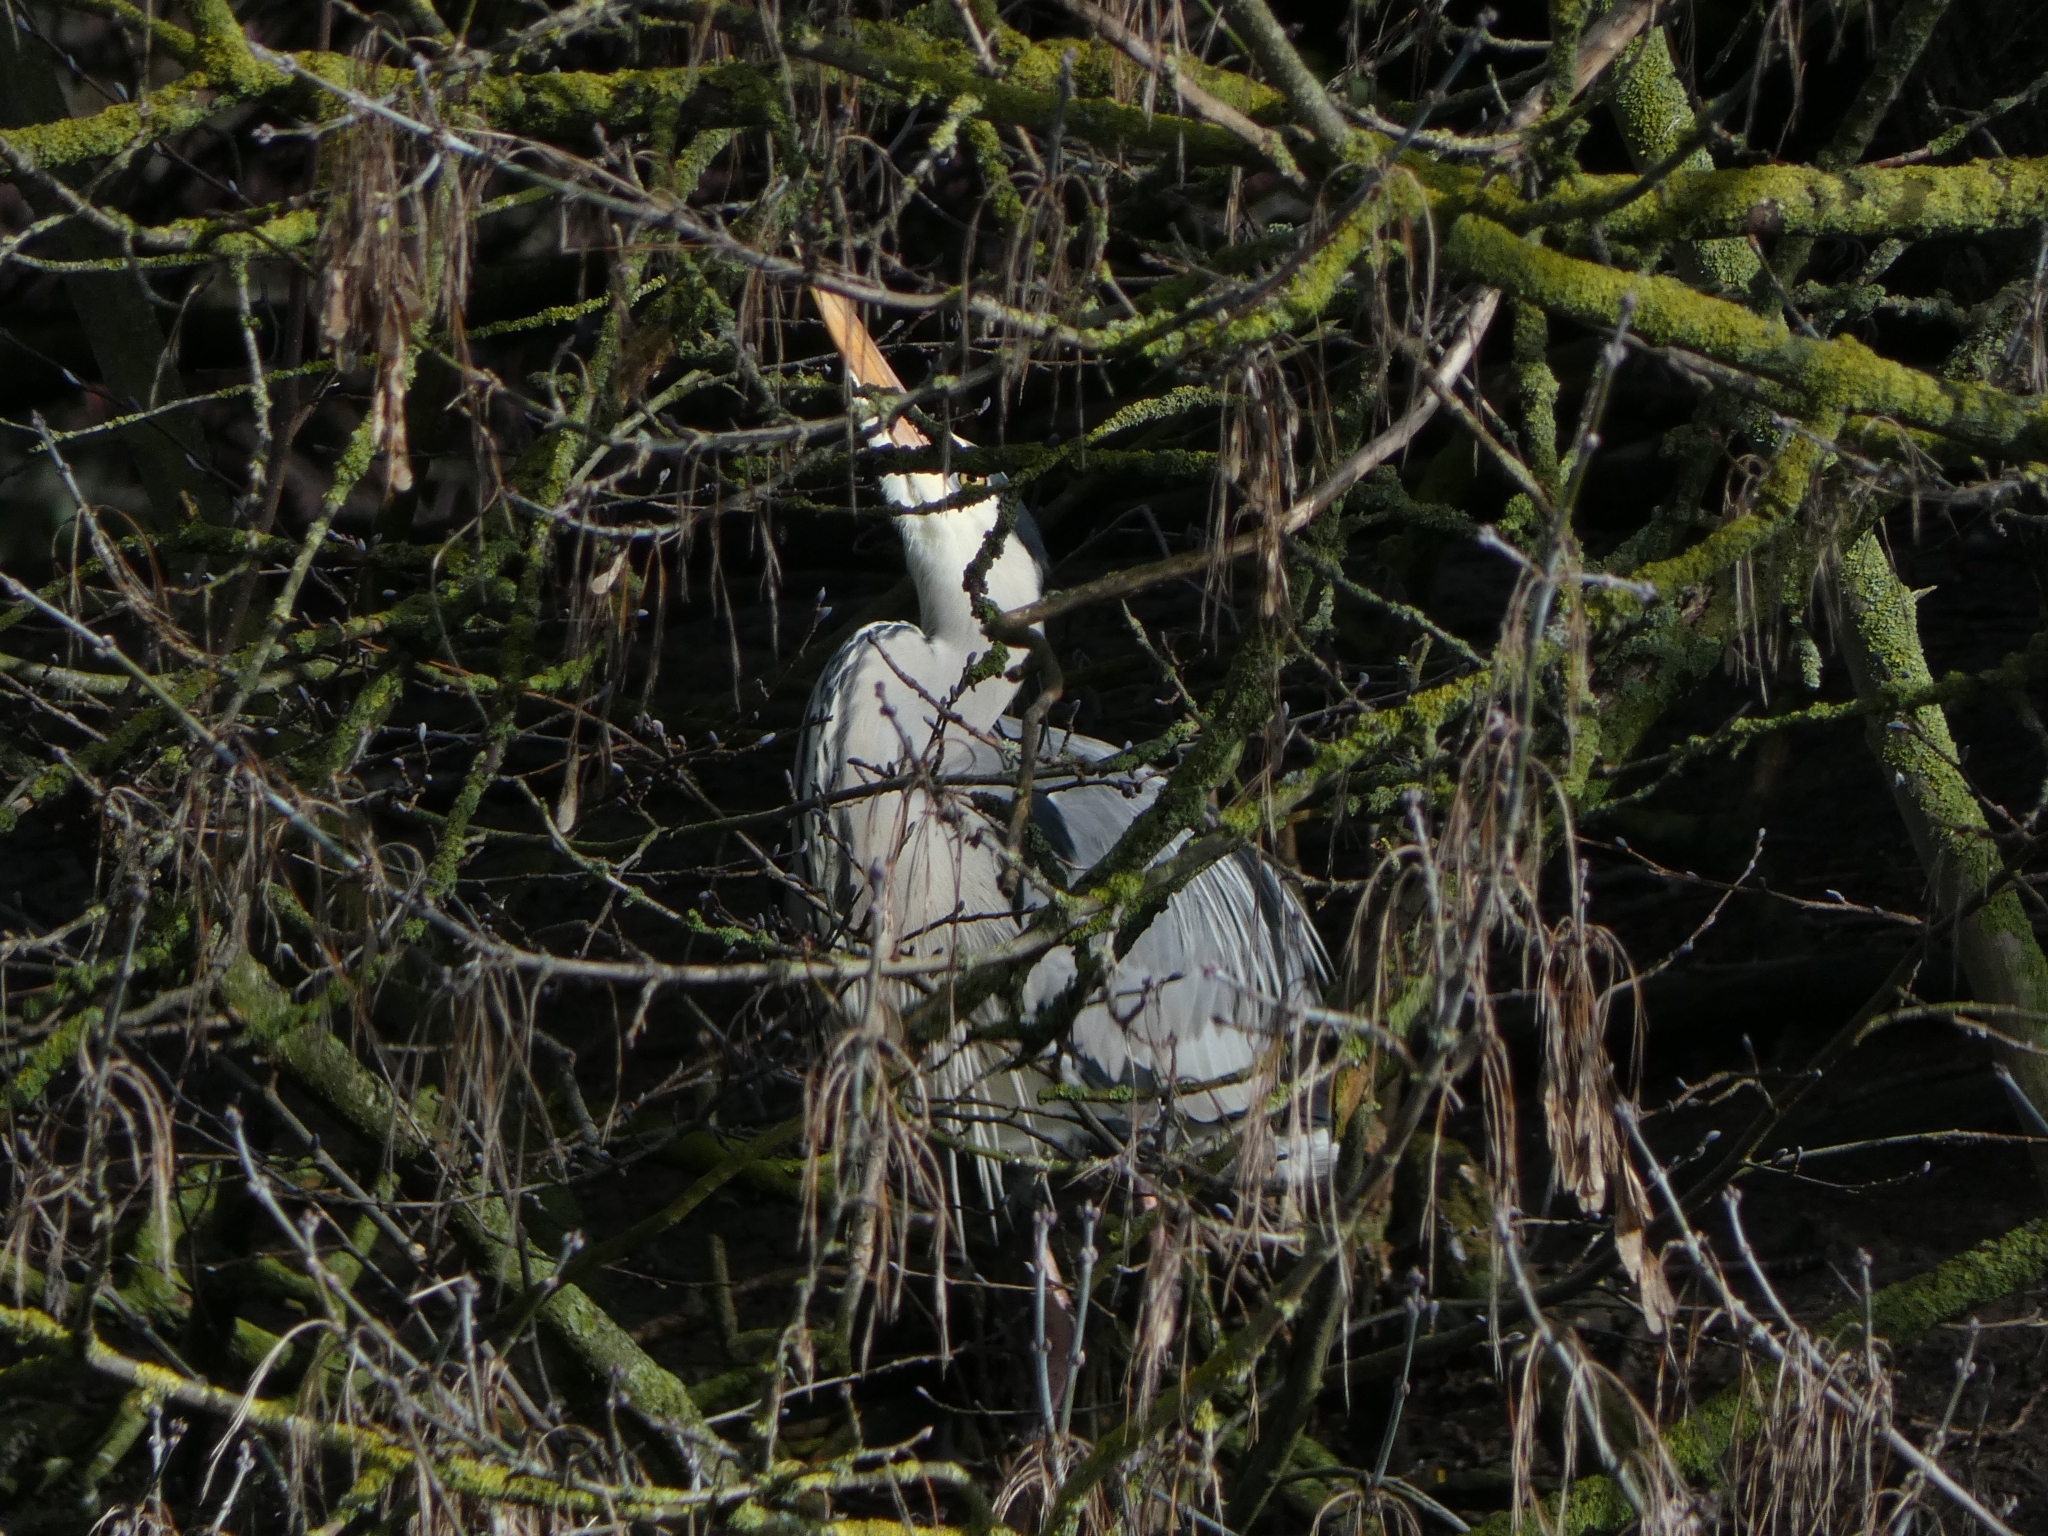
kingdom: Animalia
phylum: Chordata
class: Aves
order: Pelecaniformes
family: Ardeidae
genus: Ardea
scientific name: Ardea cinerea
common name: Grey heron
